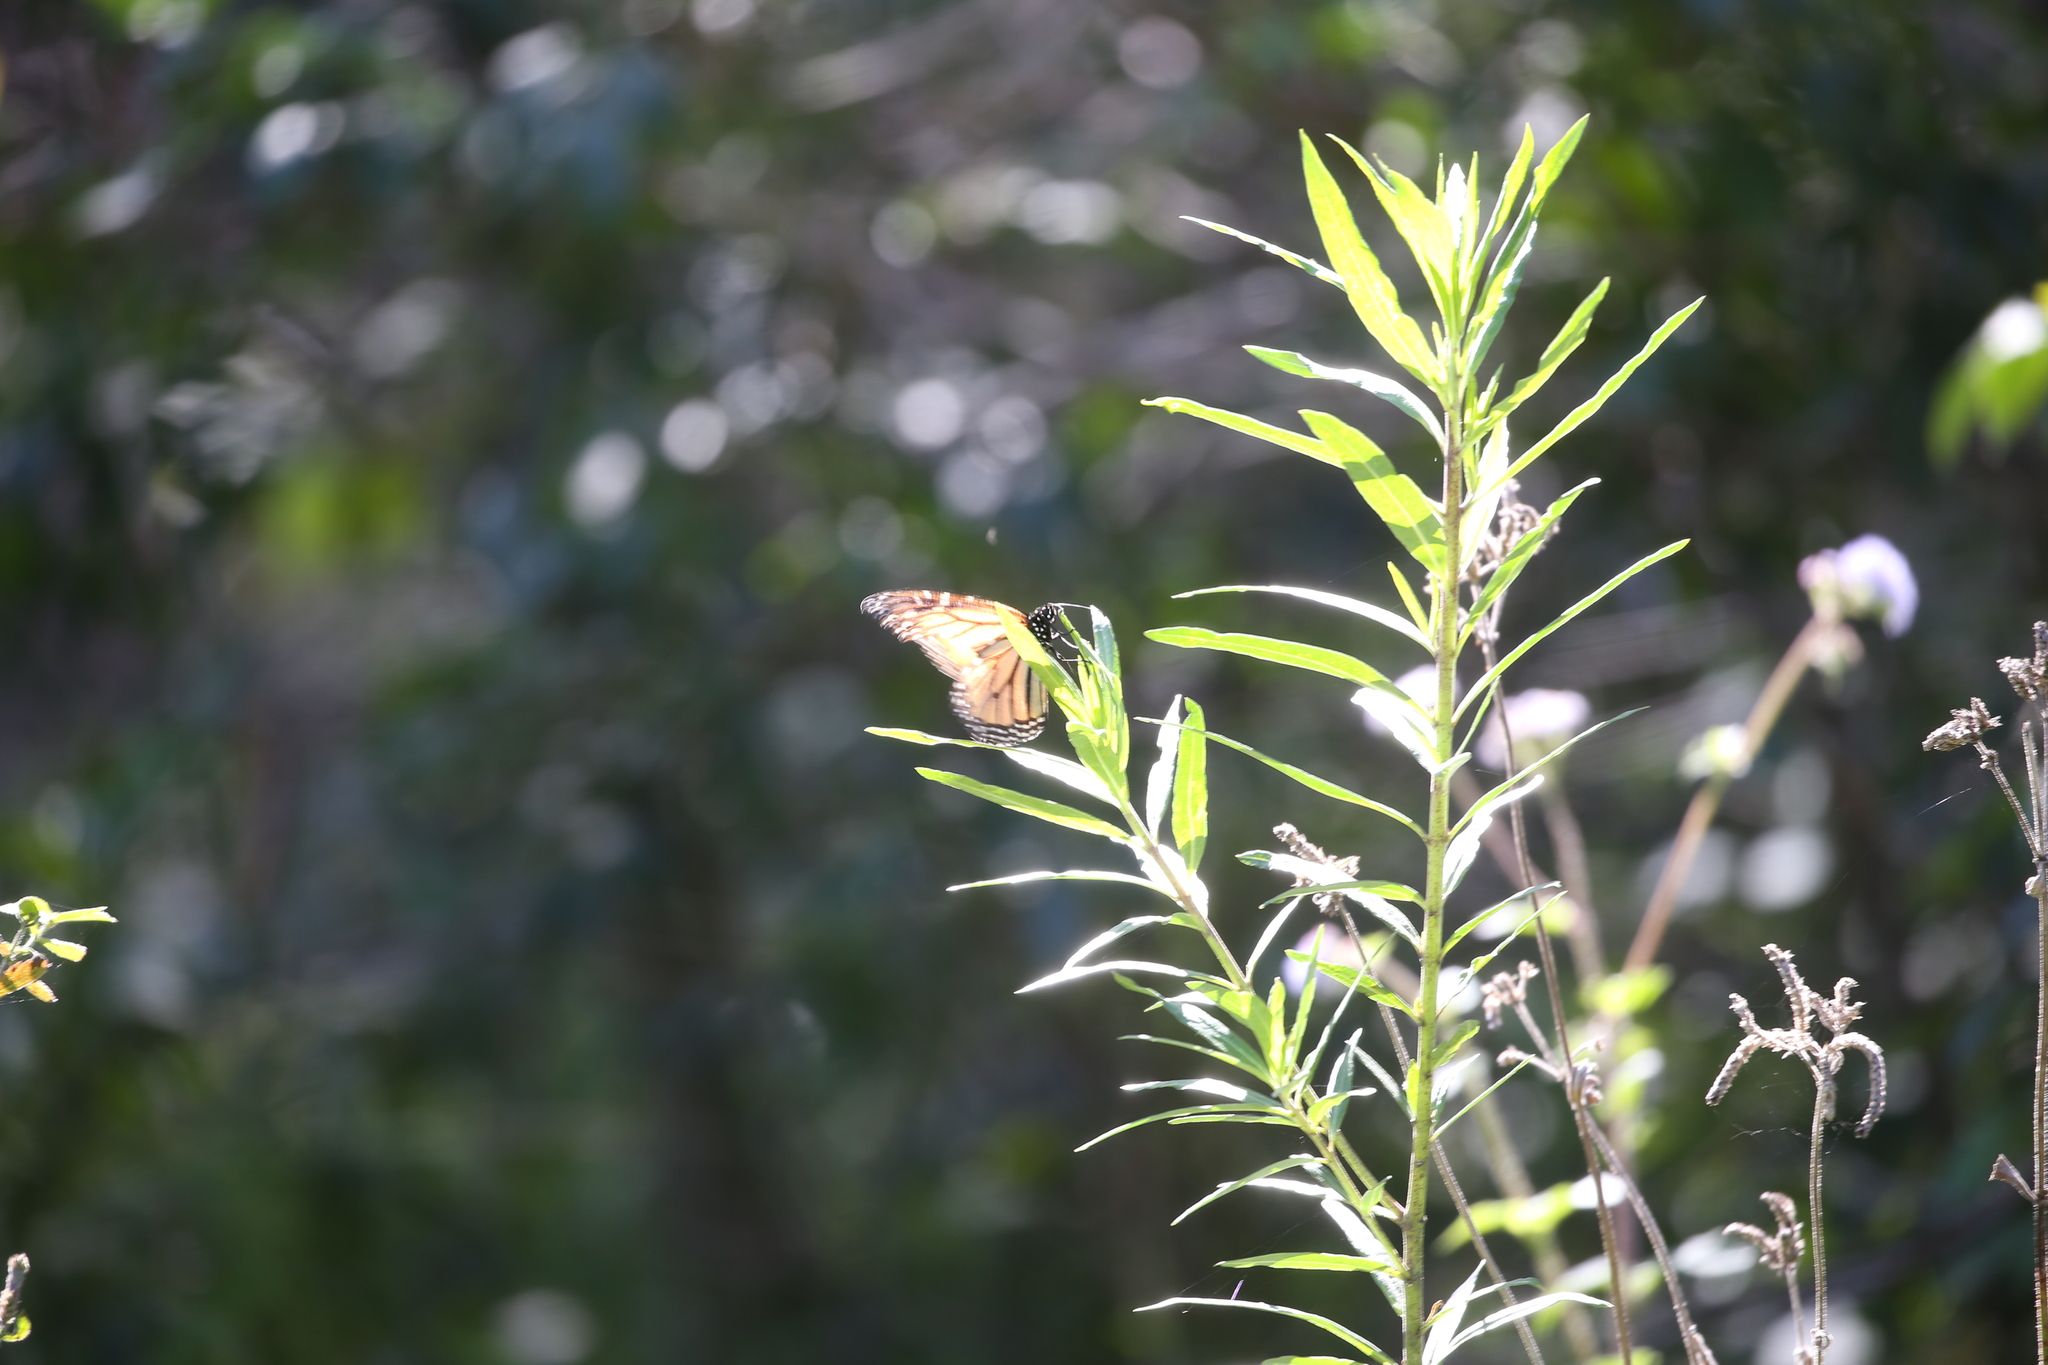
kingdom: Animalia
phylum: Arthropoda
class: Insecta
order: Lepidoptera
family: Nymphalidae
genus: Danaus
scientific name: Danaus plexippus
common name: Monarch
